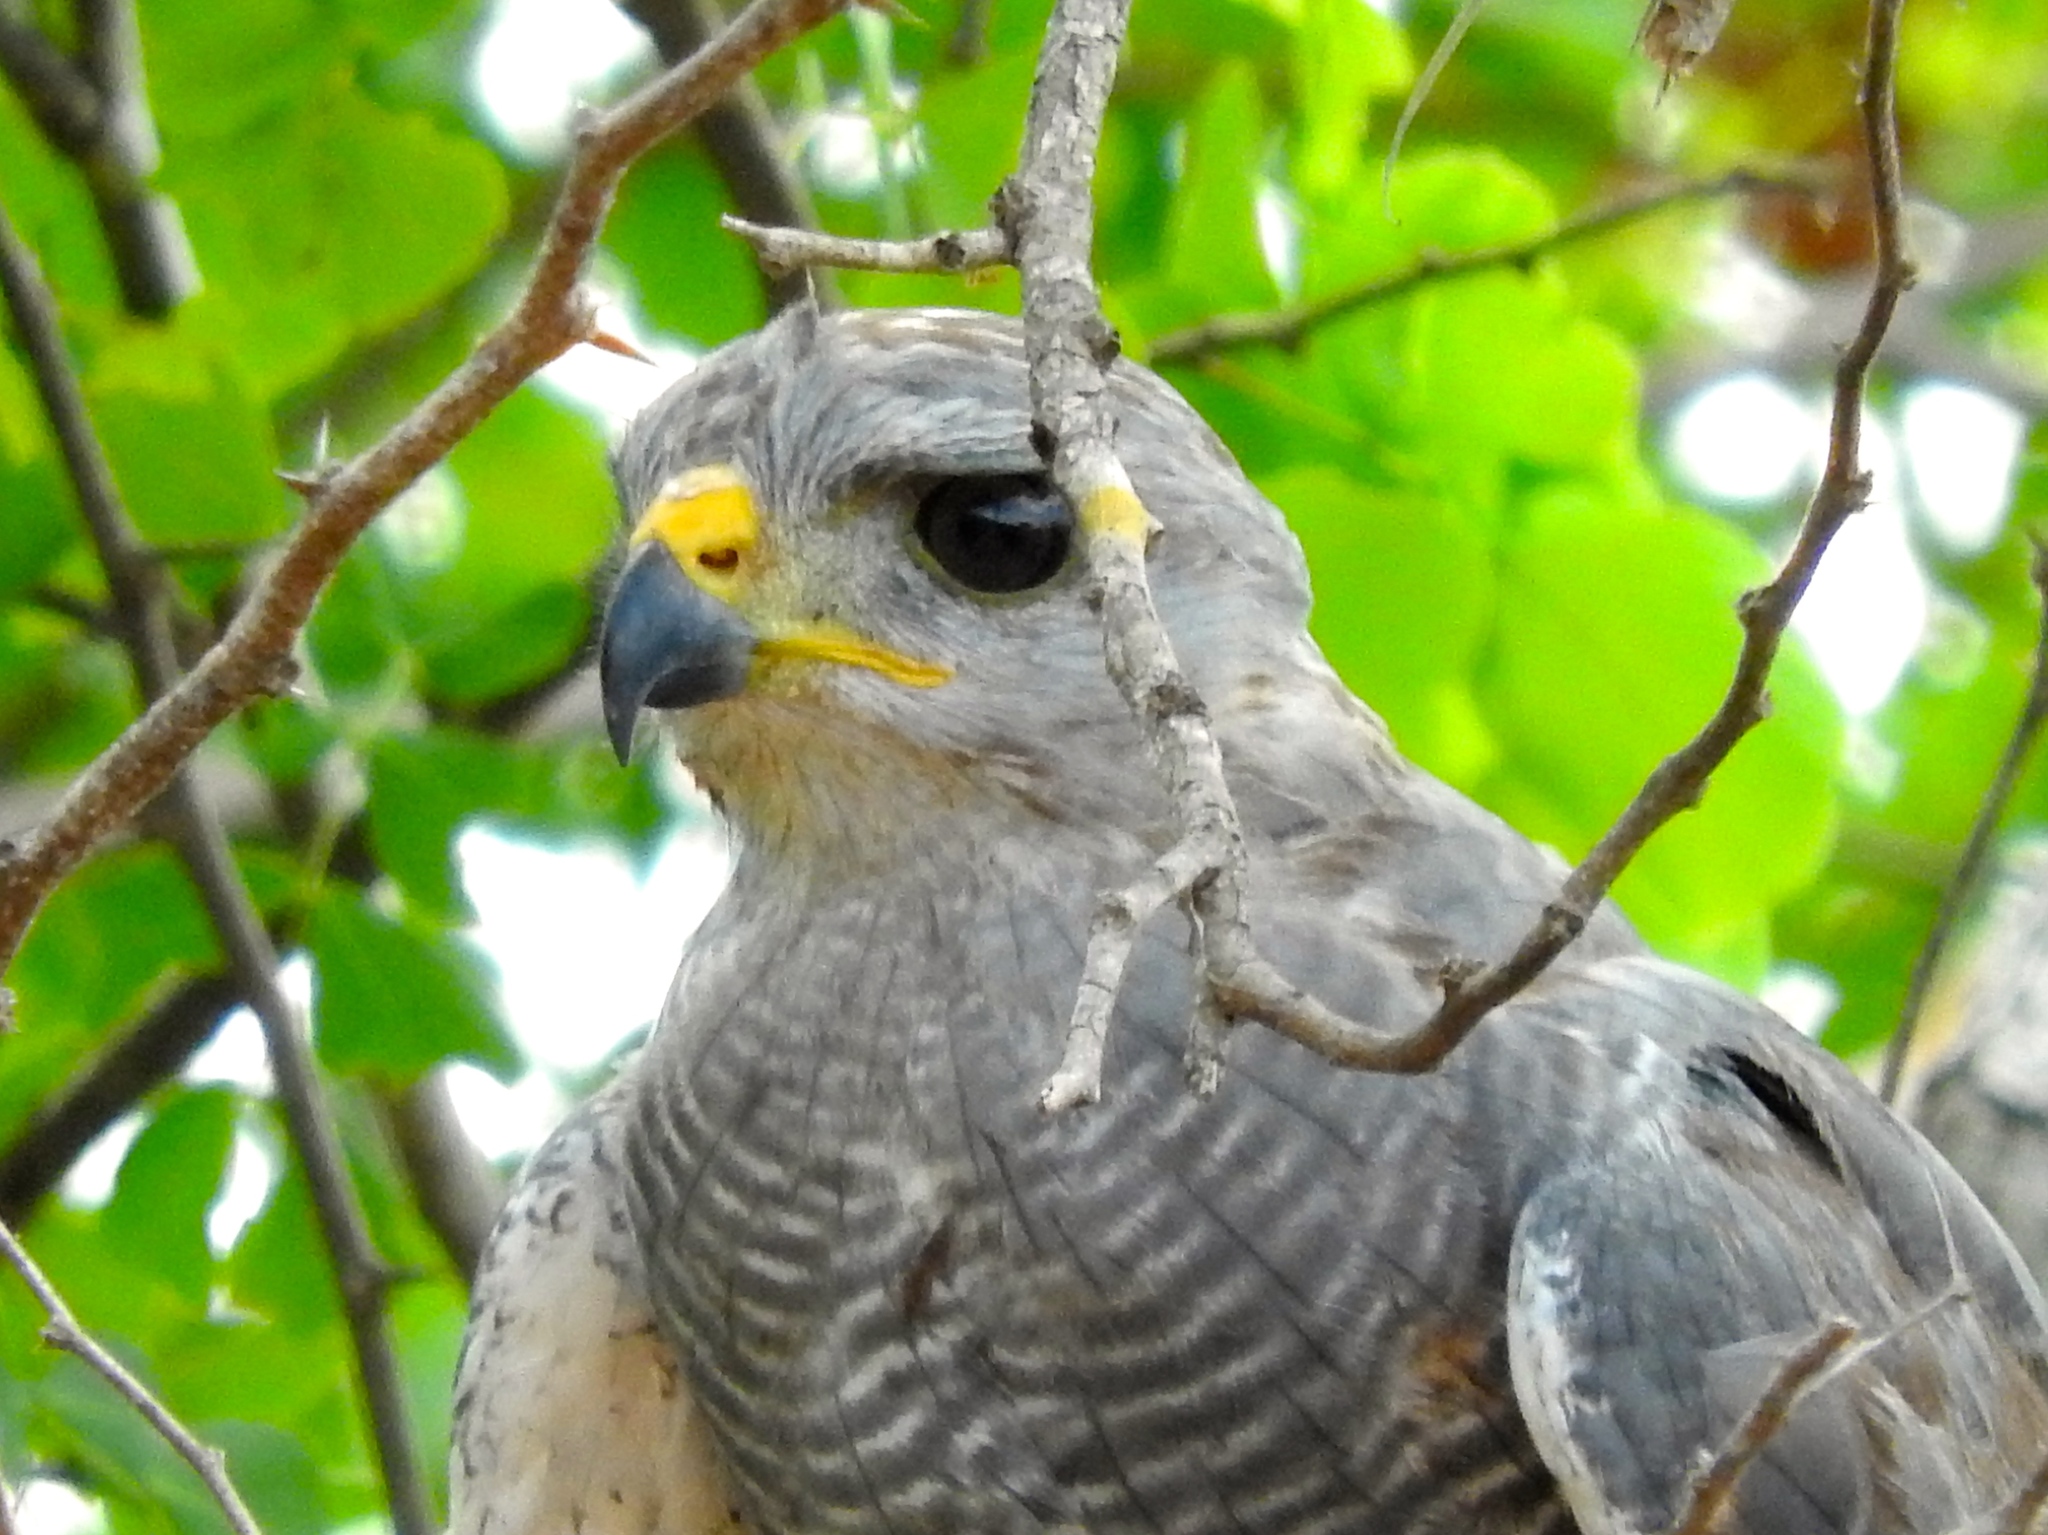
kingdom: Animalia
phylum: Chordata
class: Aves
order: Accipitriformes
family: Accipitridae
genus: Buteo
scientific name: Buteo nitidus
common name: Grey-lined hawk
